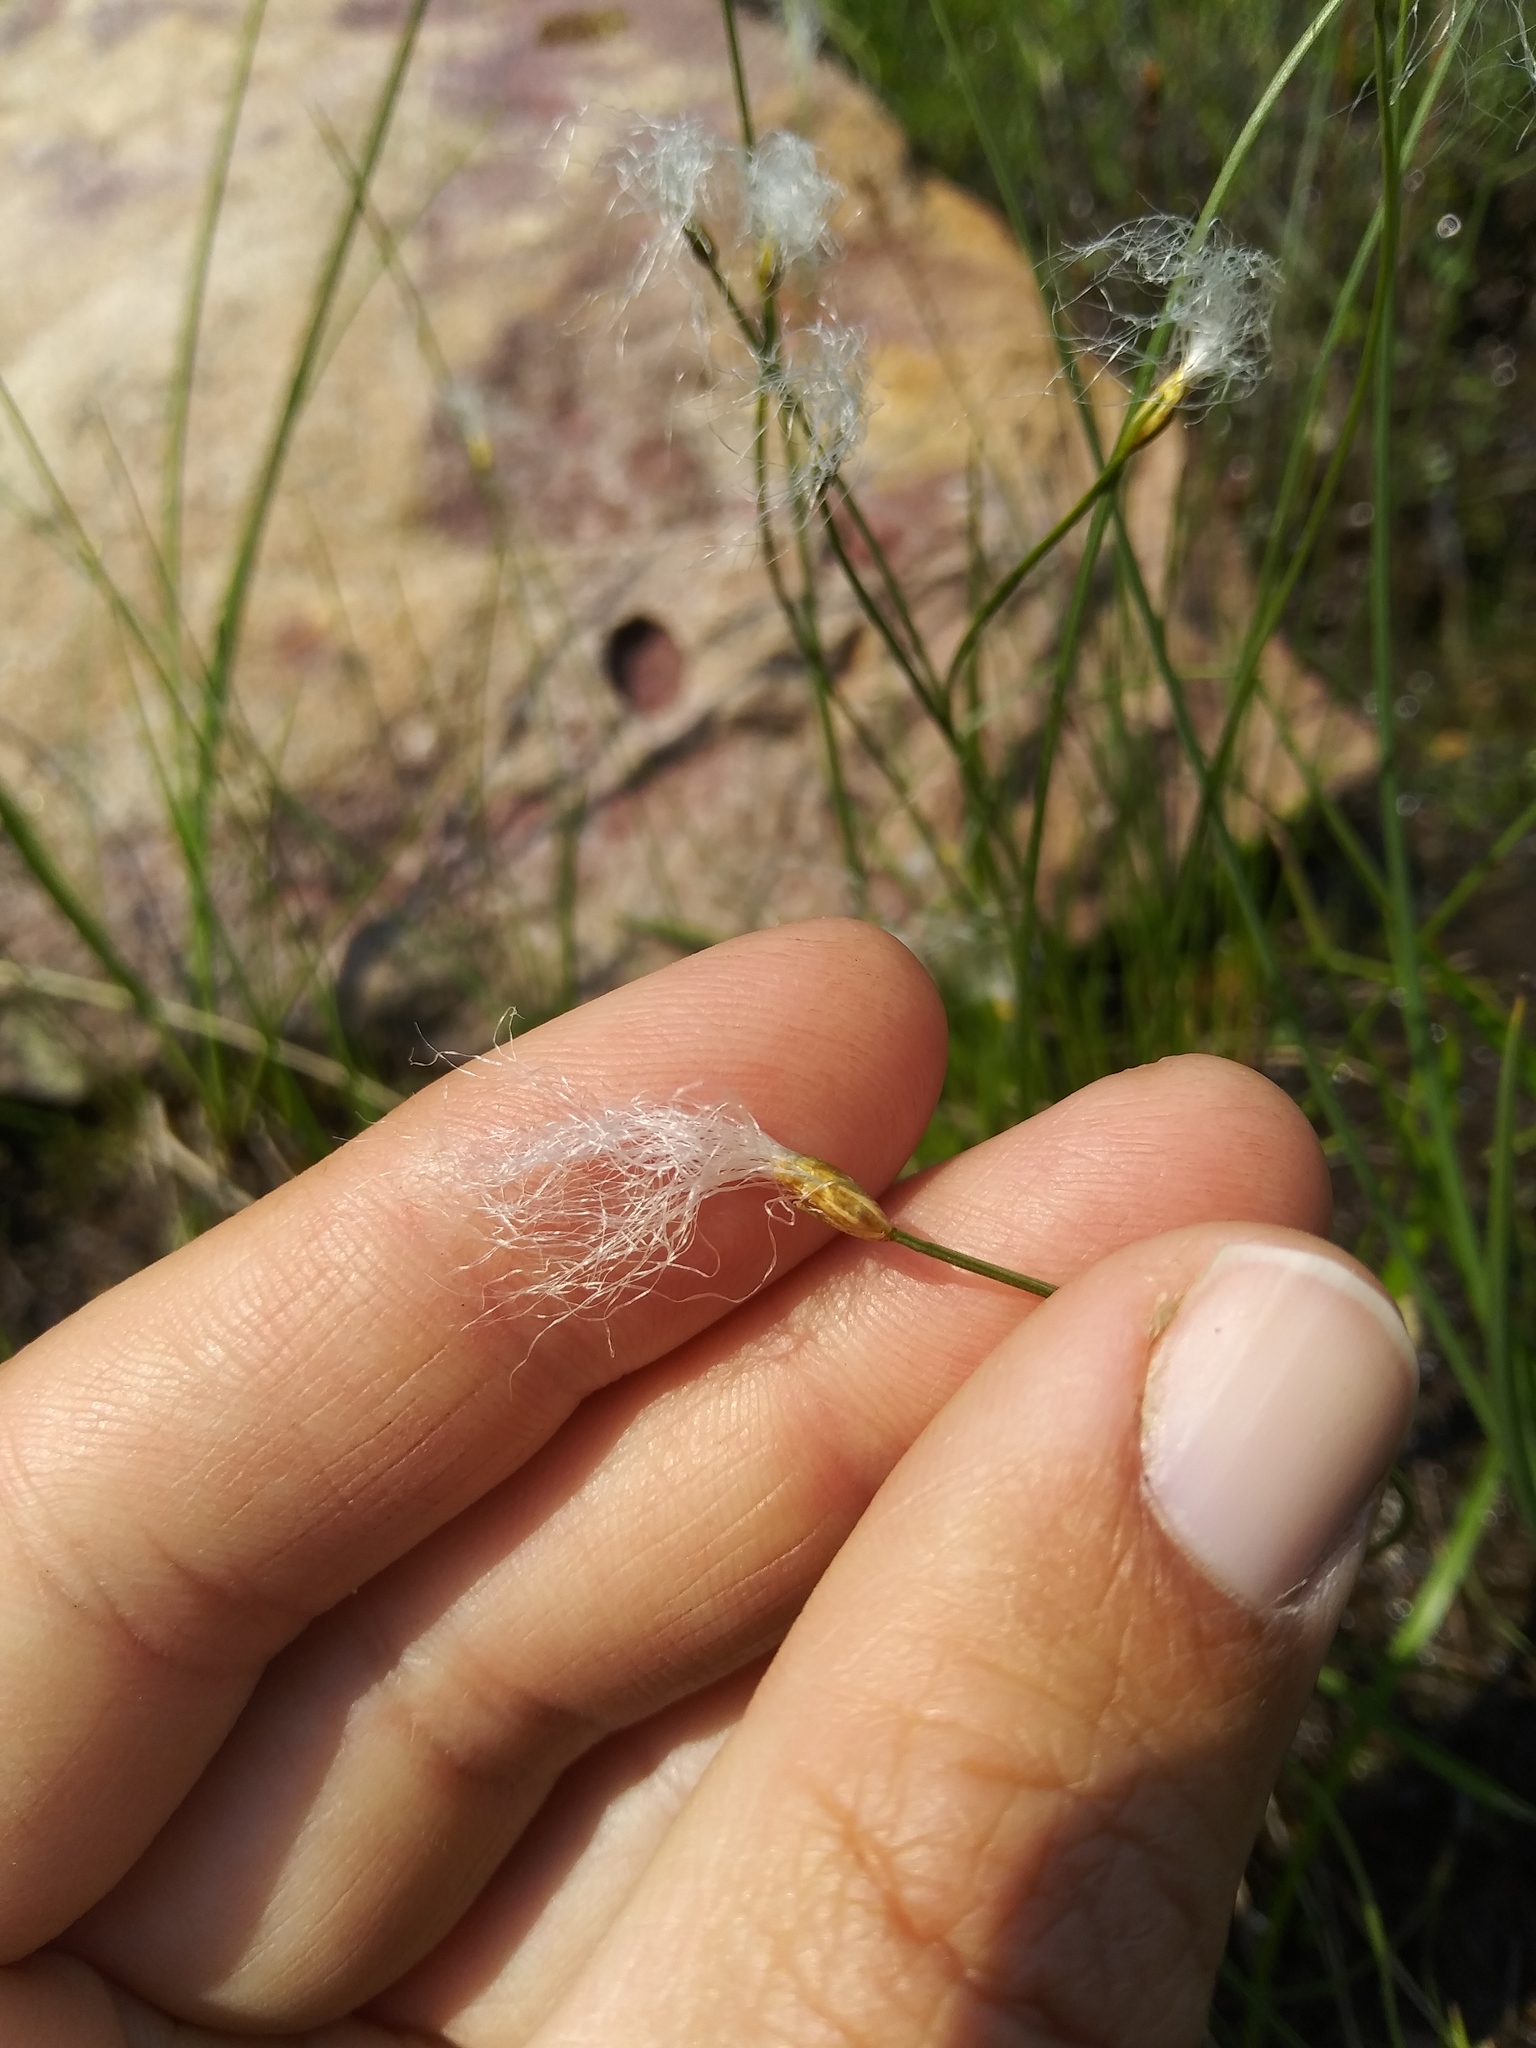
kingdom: Plantae
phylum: Tracheophyta
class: Liliopsida
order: Poales
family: Cyperaceae
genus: Trichophorum
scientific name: Trichophorum alpinum
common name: Alpine bulrush
